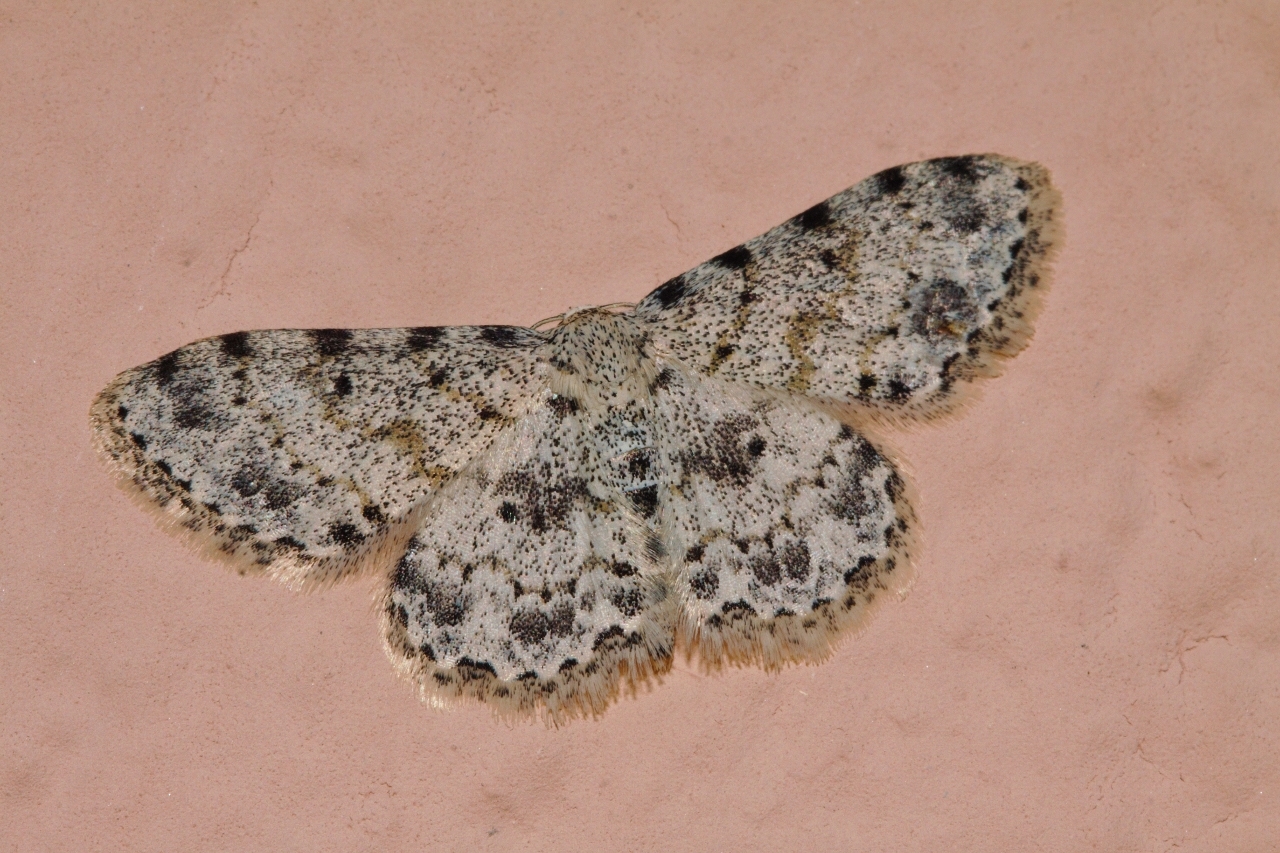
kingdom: Animalia
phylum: Arthropoda
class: Insecta
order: Lepidoptera
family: Geometridae
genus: Scopula
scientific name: Scopula nigrinotata
